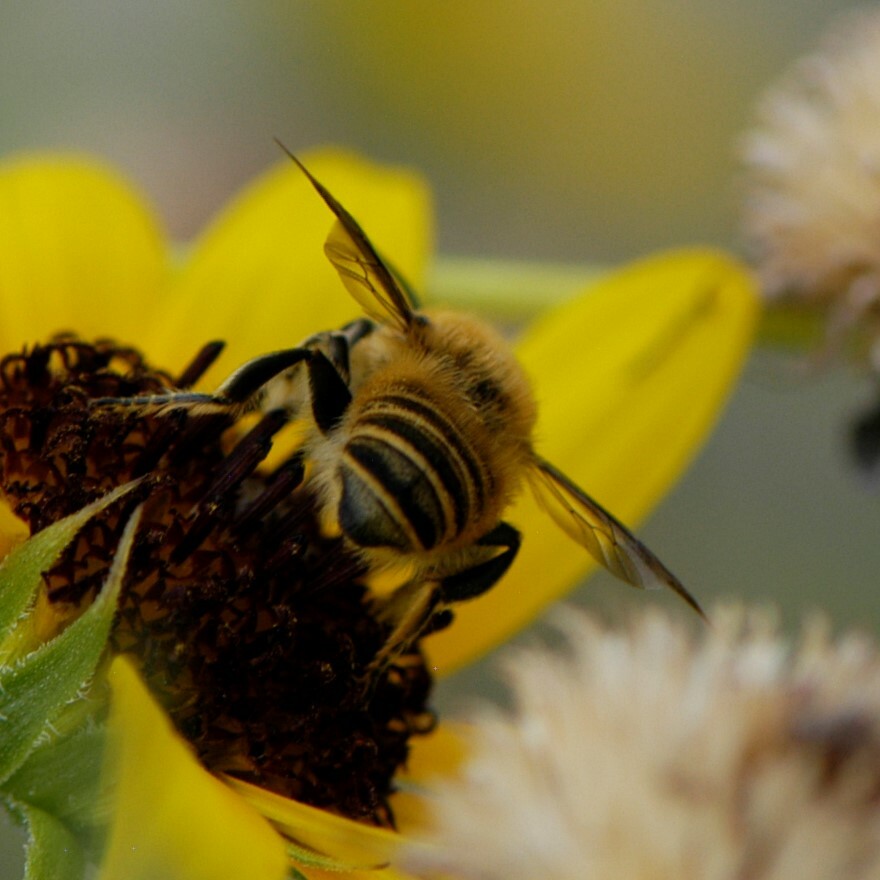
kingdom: Animalia
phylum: Arthropoda
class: Insecta
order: Hymenoptera
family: Megachilidae
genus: Megachile
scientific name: Megachile fortis
